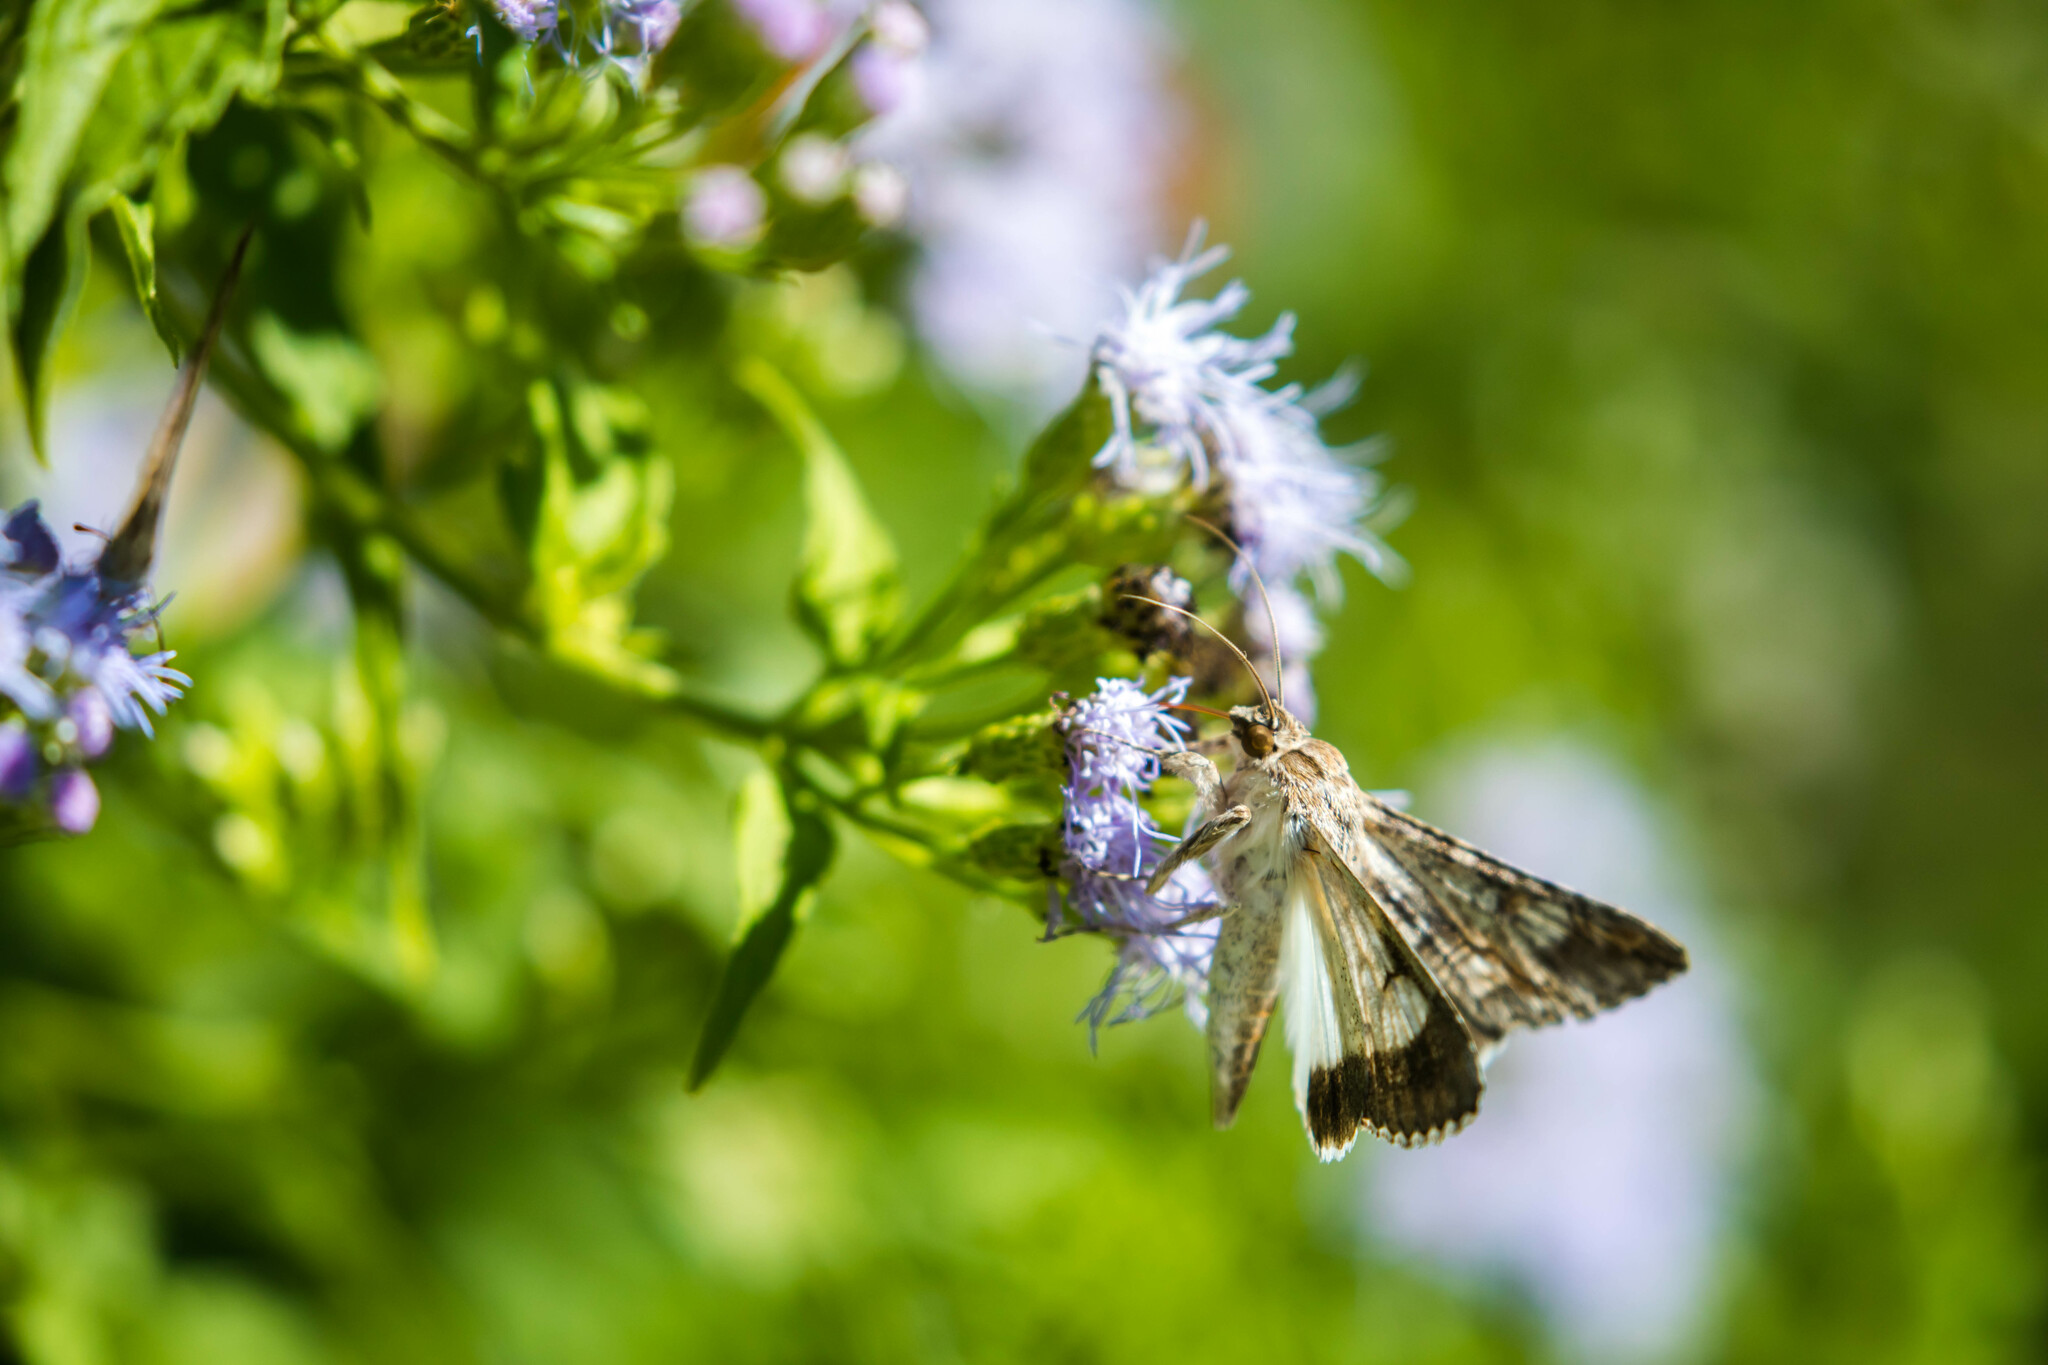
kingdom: Animalia
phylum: Arthropoda
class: Insecta
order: Lepidoptera
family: Erebidae
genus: Melipotis
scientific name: Melipotis acontioides
